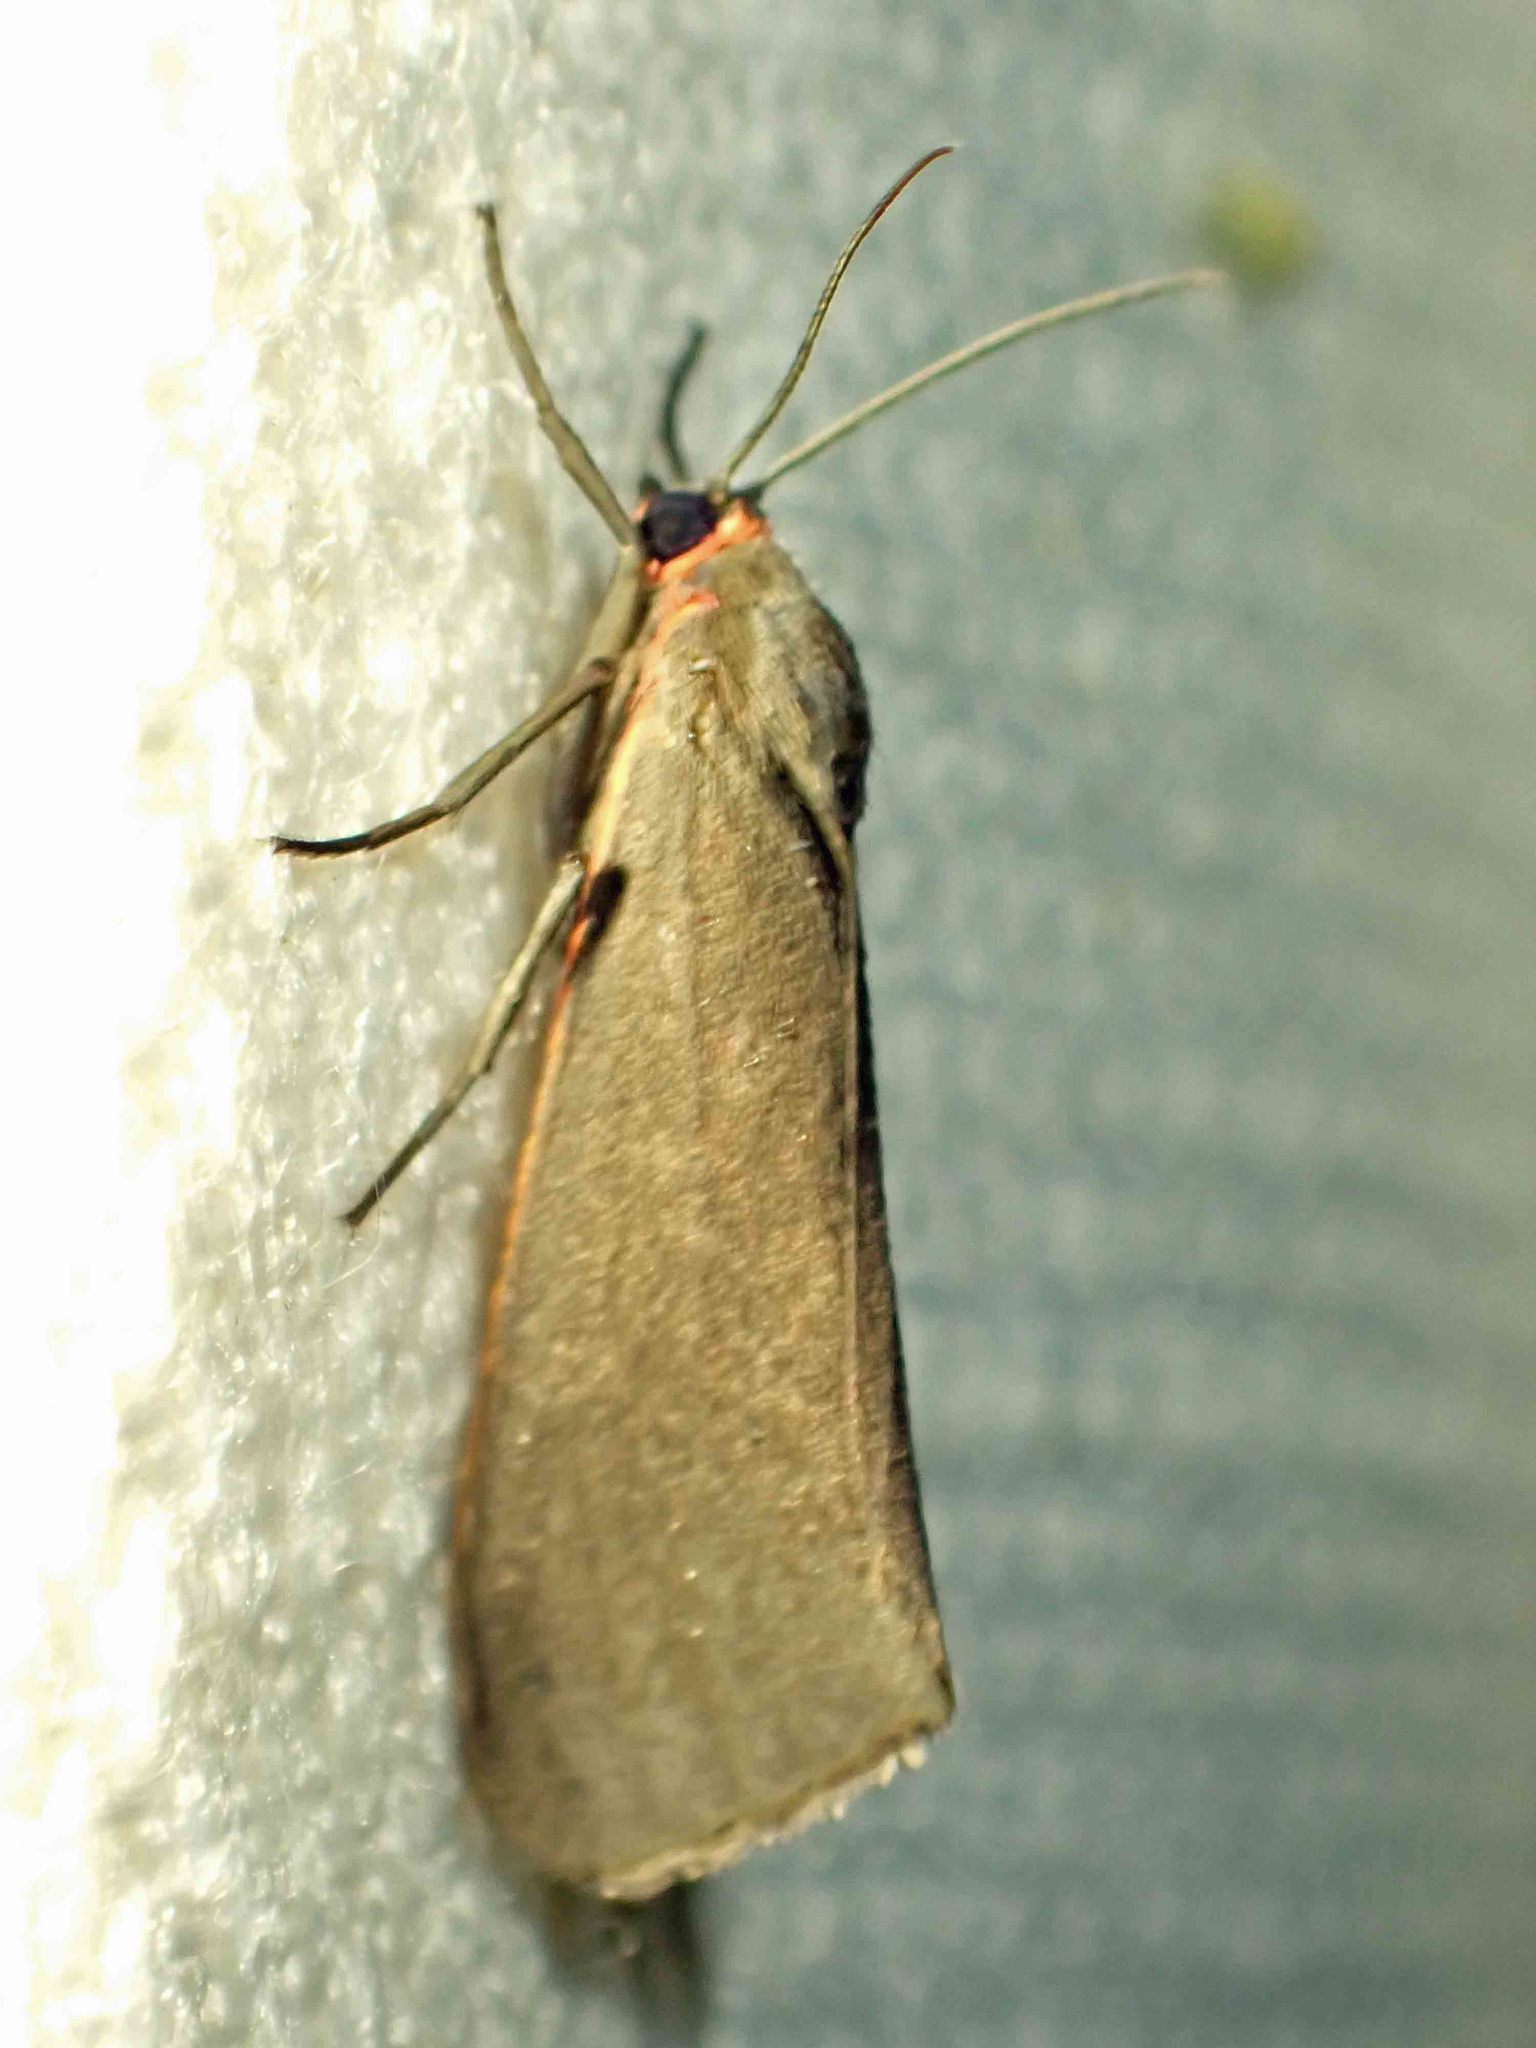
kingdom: Animalia
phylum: Arthropoda
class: Insecta
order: Lepidoptera
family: Erebidae
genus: Virbia
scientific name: Virbia laeta
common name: Joyful holomelina moth
